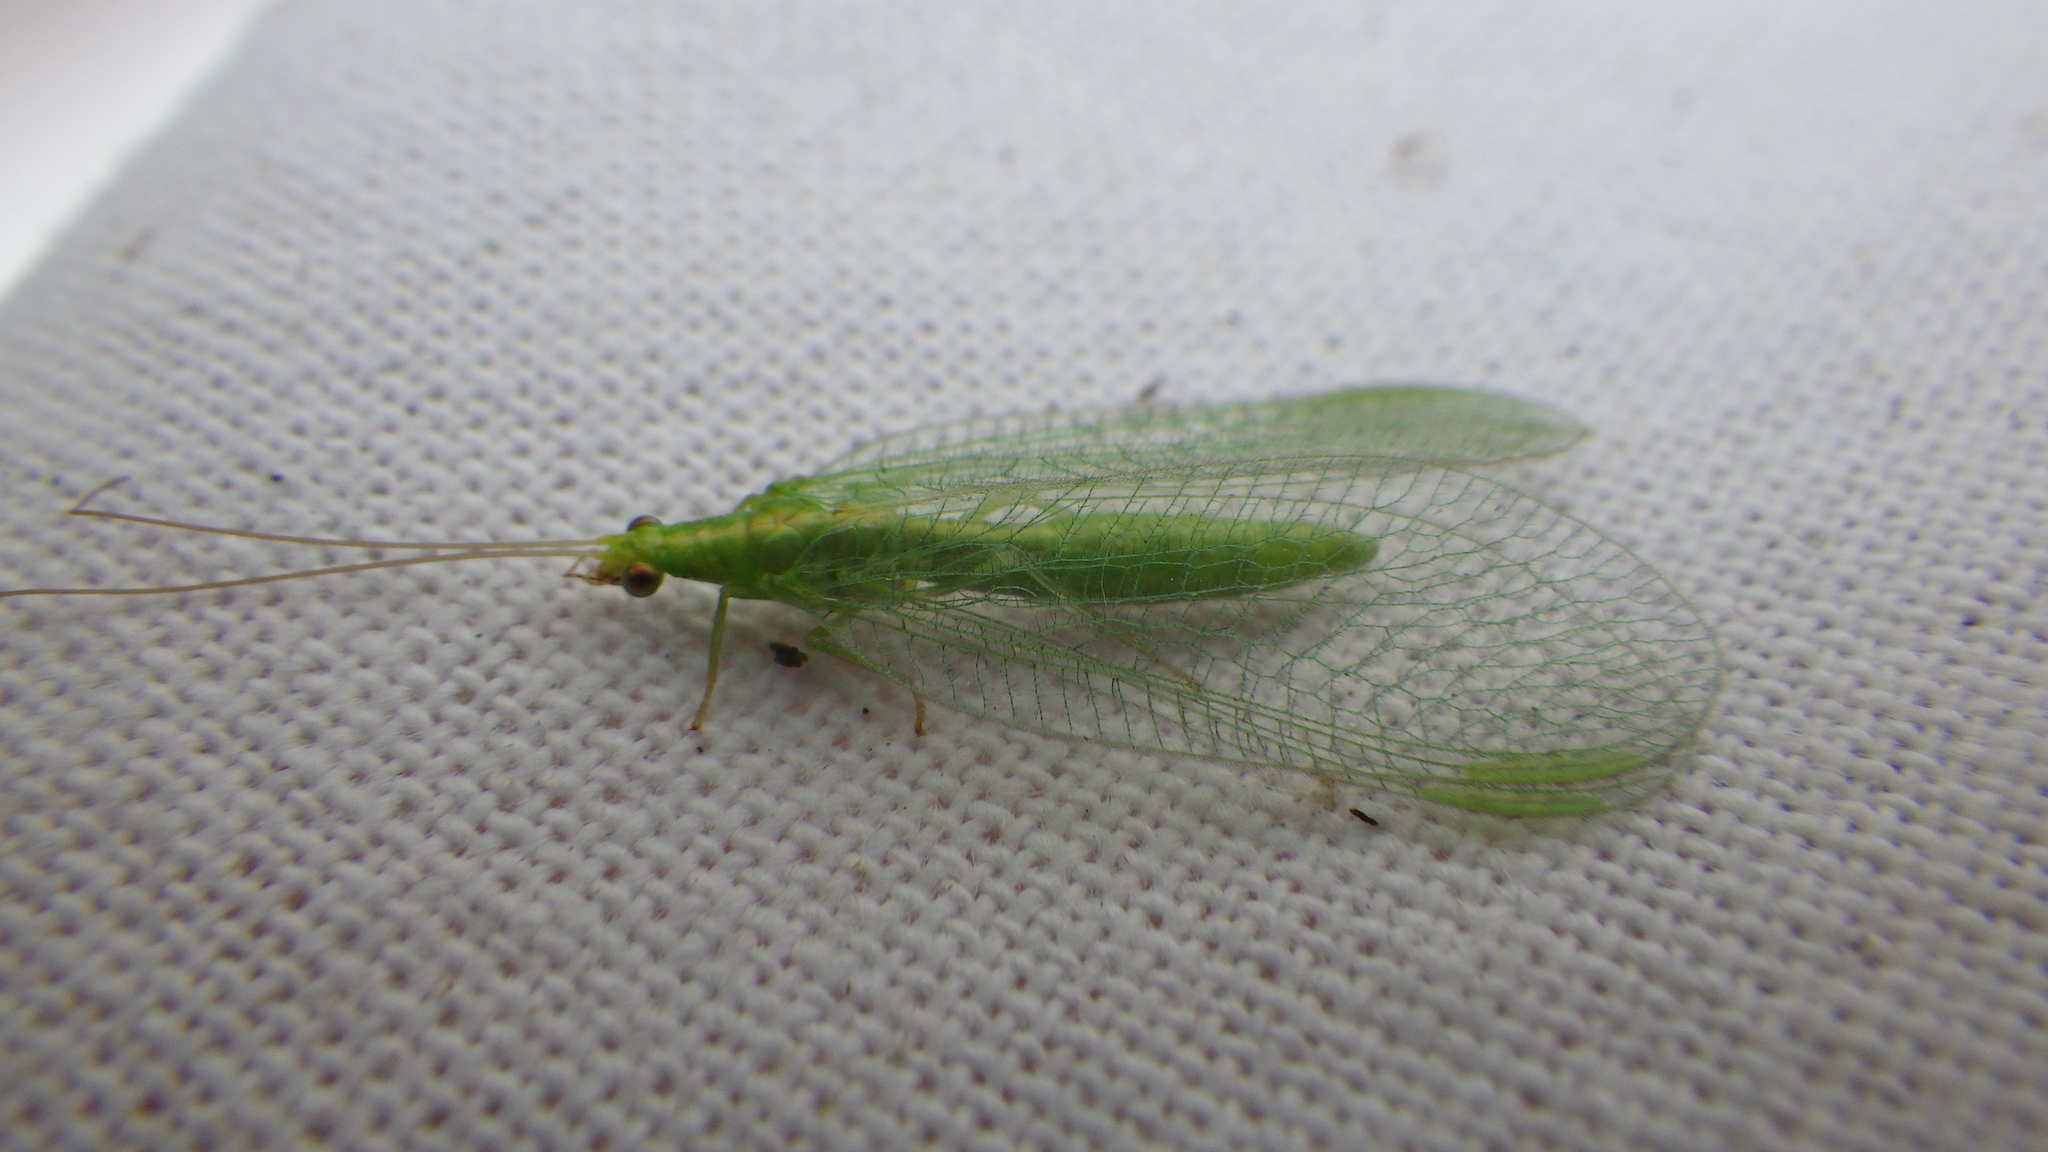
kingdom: Animalia
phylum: Arthropoda
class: Insecta
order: Neuroptera
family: Chrysopidae
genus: Chrysoperla
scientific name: Chrysoperla
